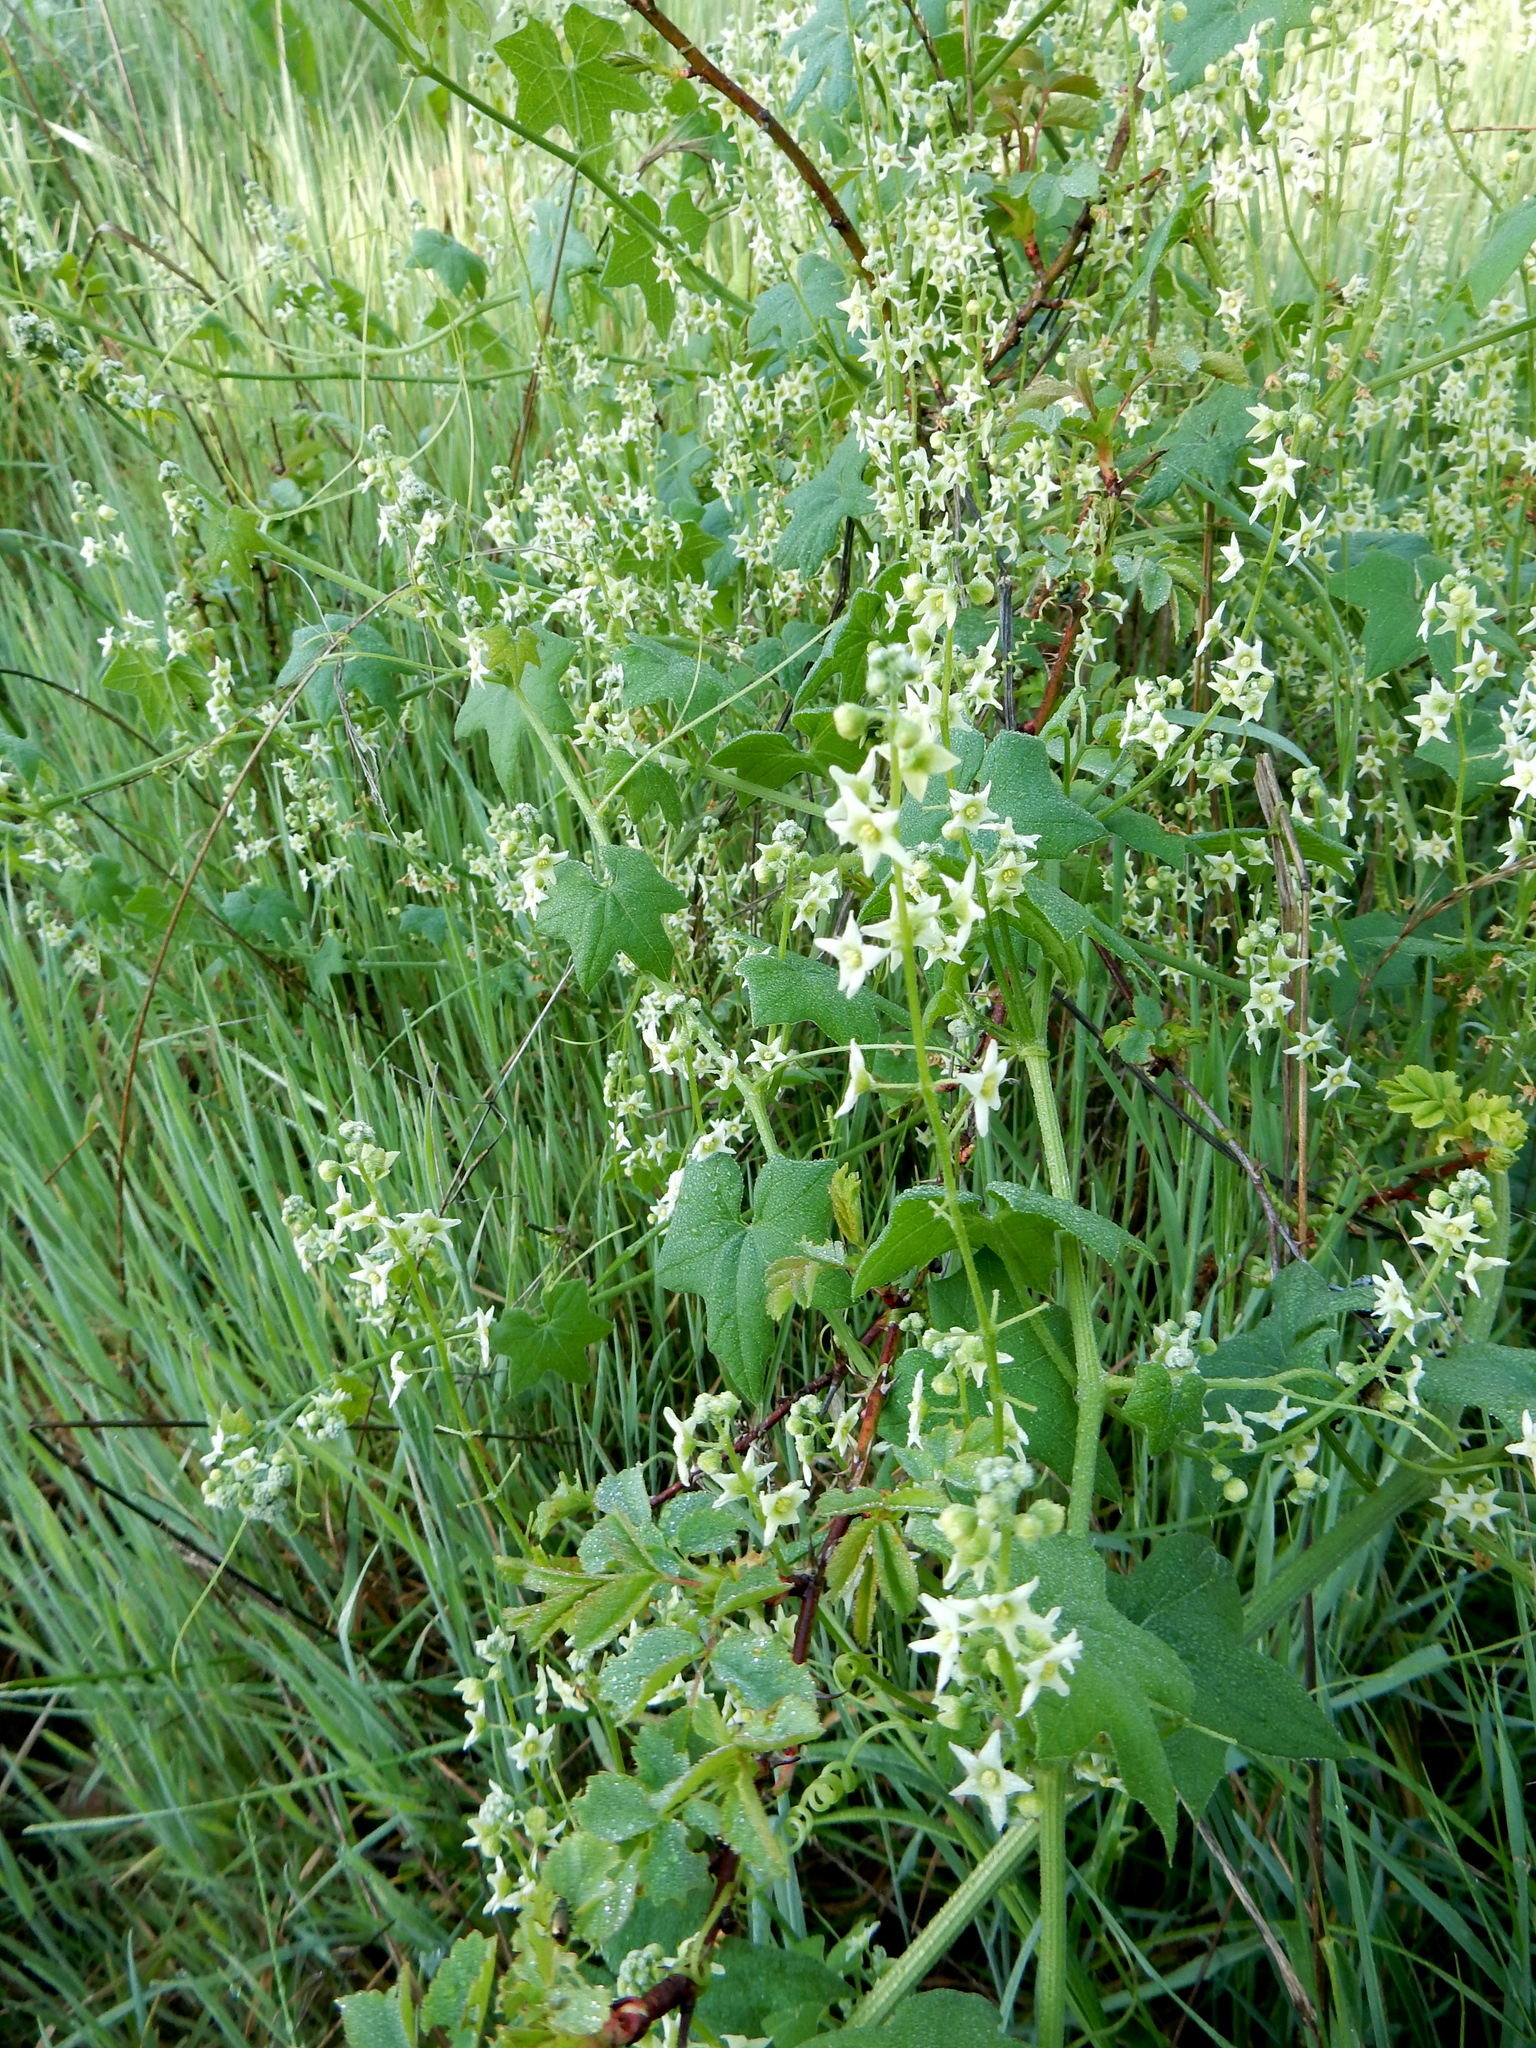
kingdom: Plantae
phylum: Tracheophyta
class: Magnoliopsida
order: Cucurbitales
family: Cucurbitaceae
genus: Marah
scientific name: Marah fabacea
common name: California manroot
